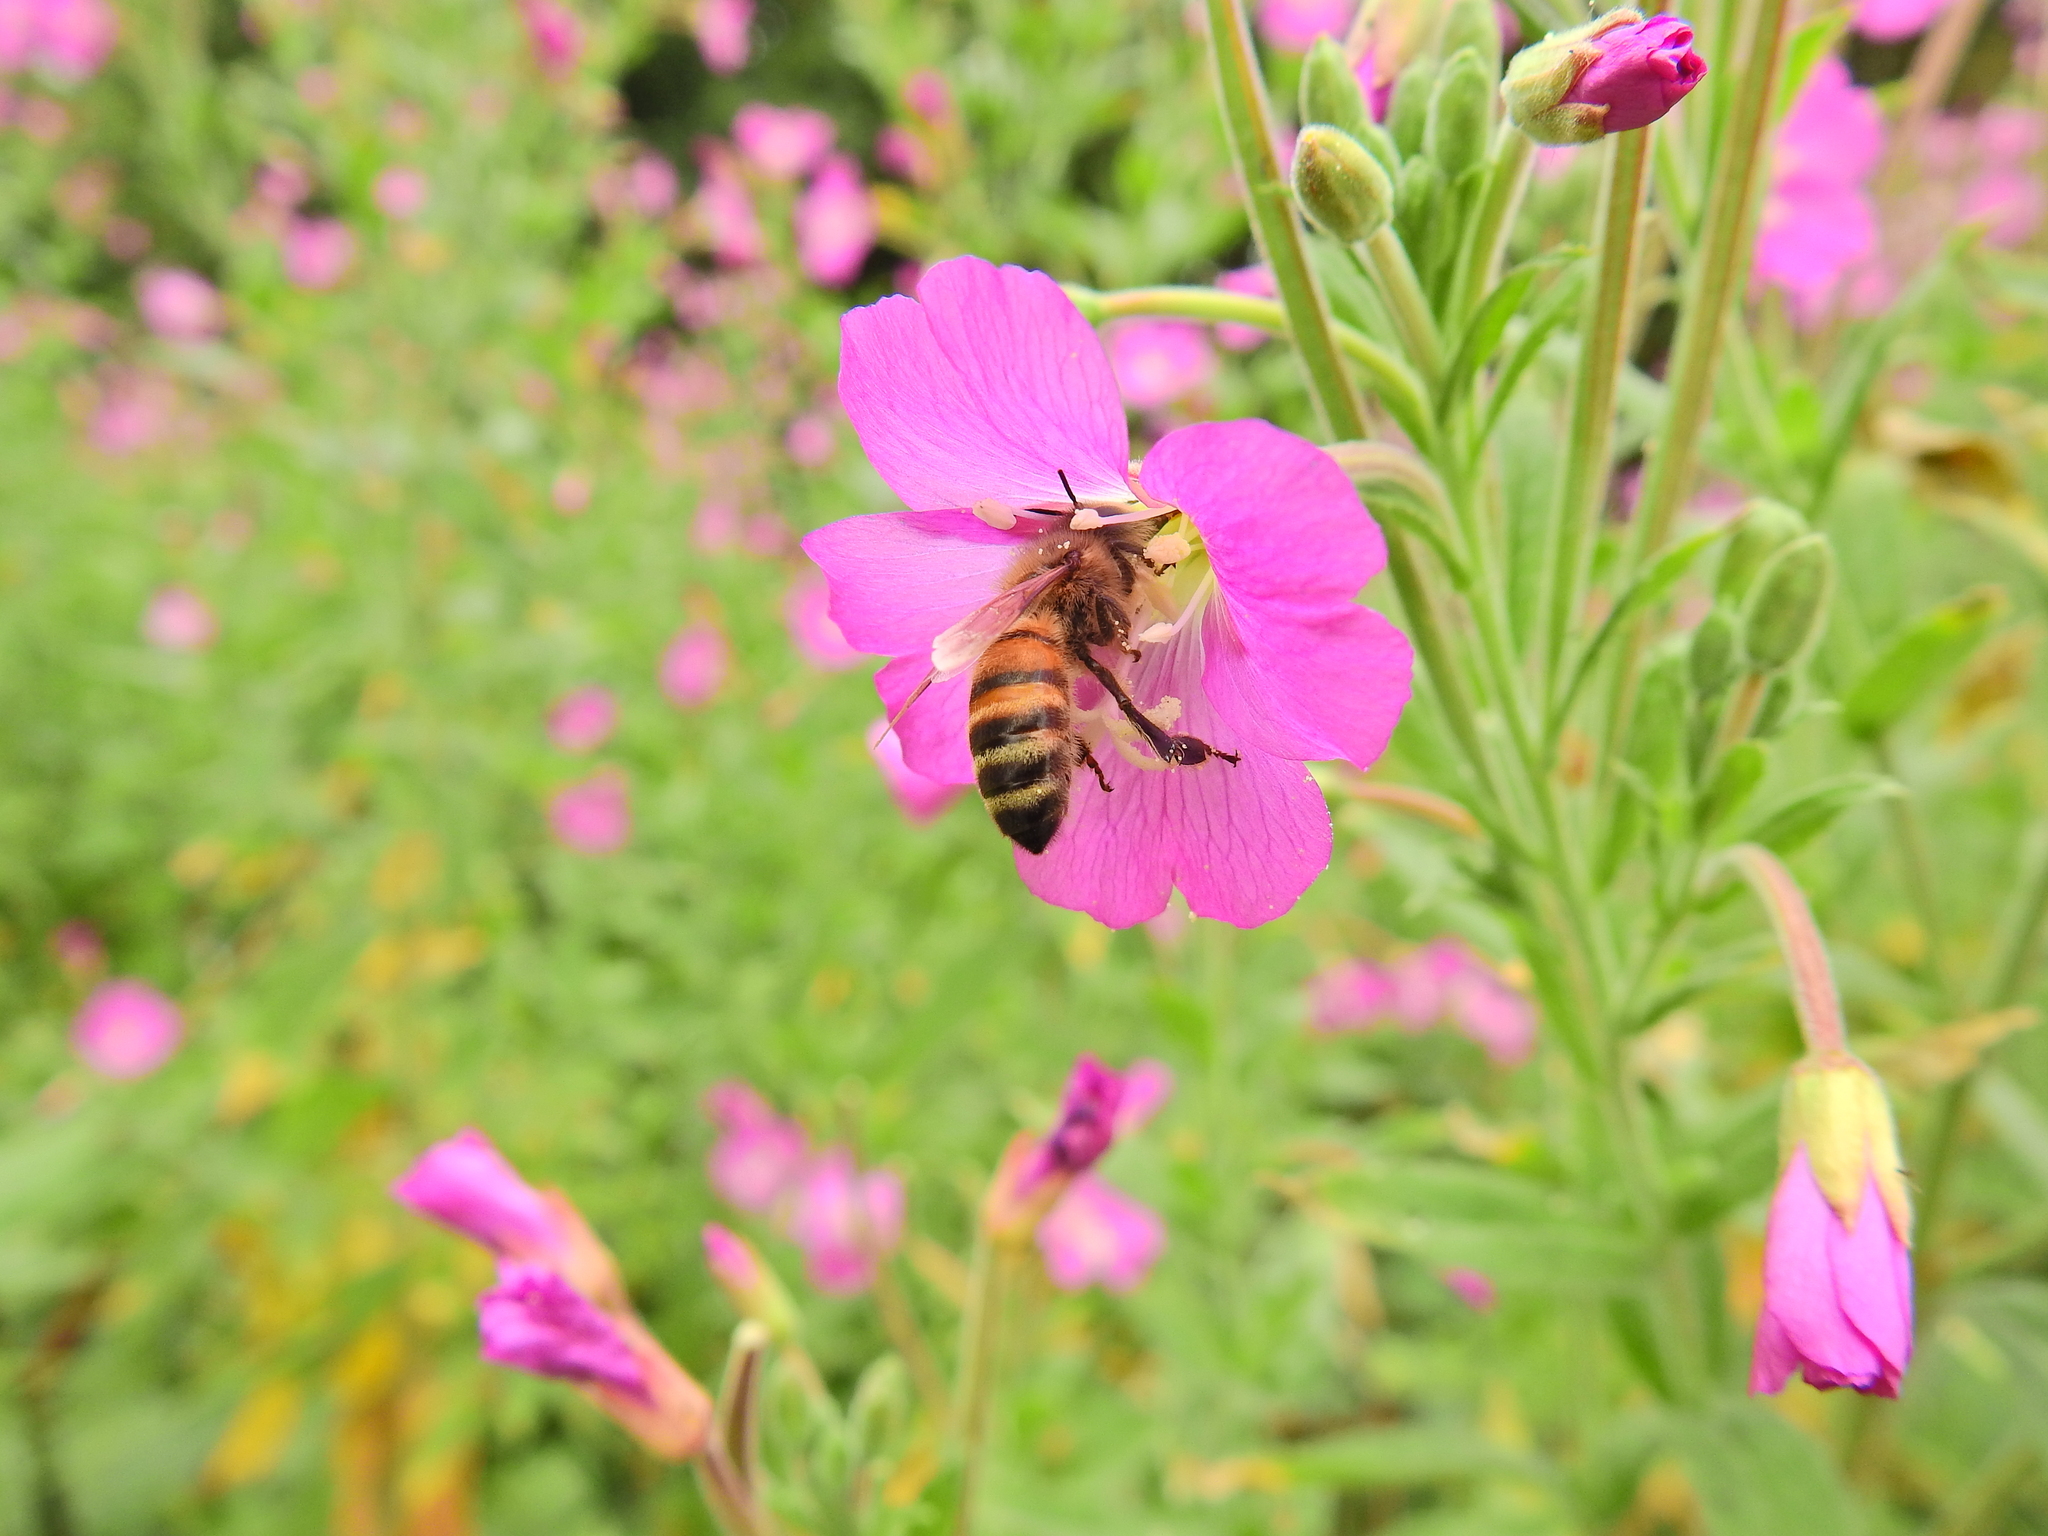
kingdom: Animalia
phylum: Arthropoda
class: Insecta
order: Hymenoptera
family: Apidae
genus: Apis
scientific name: Apis mellifera
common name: Honey bee
